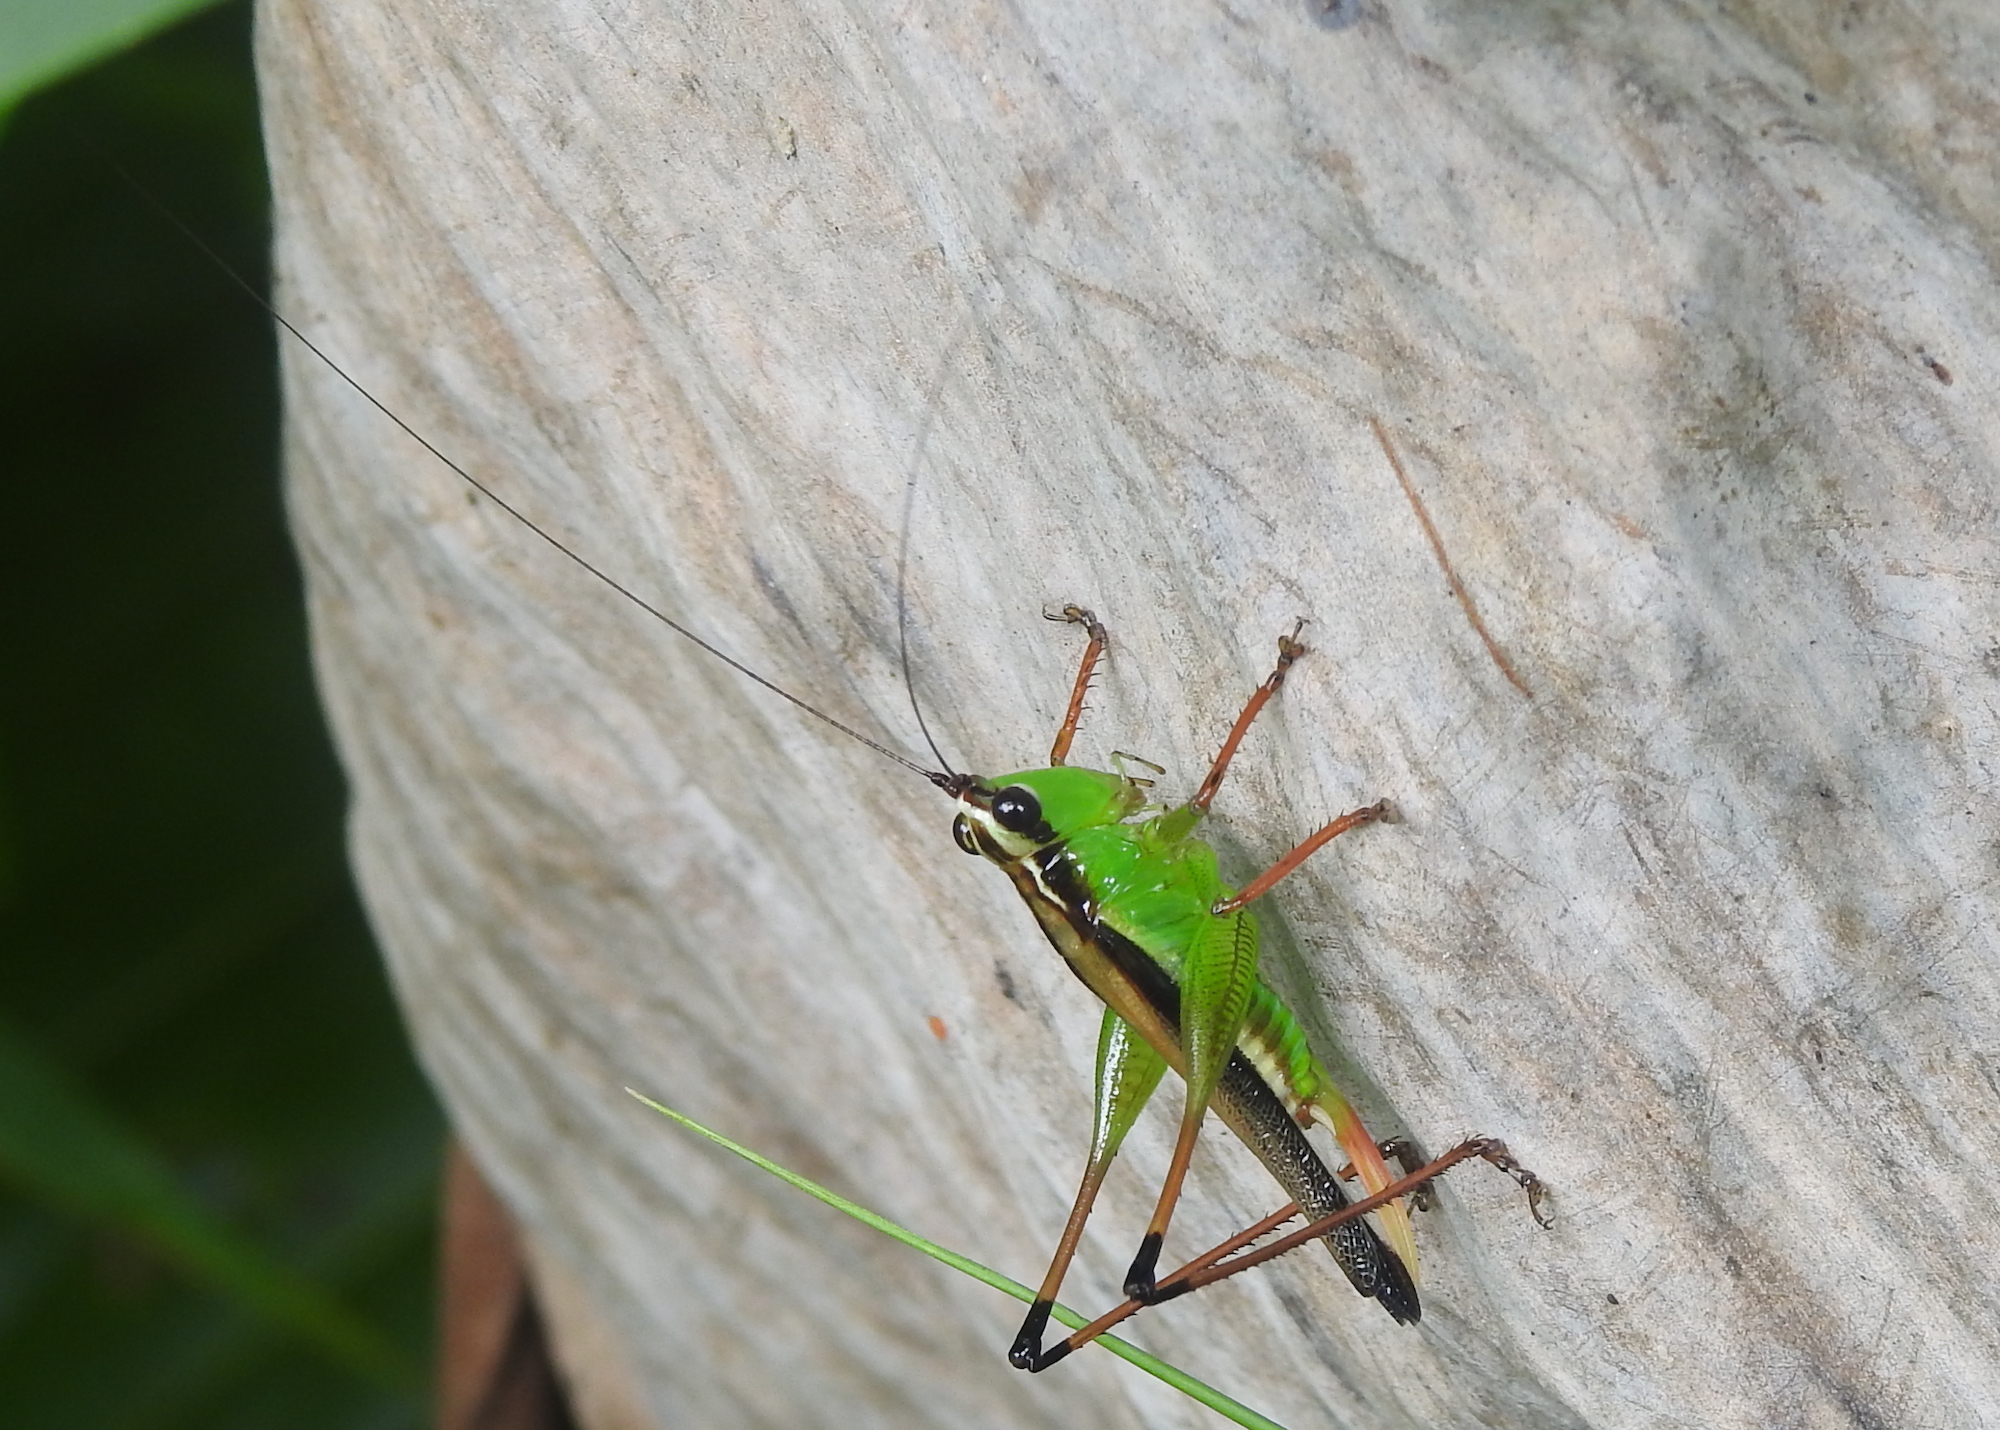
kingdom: Animalia
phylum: Arthropoda
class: Insecta
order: Orthoptera
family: Tettigoniidae
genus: Conocephalus
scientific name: Conocephalus melaenus
